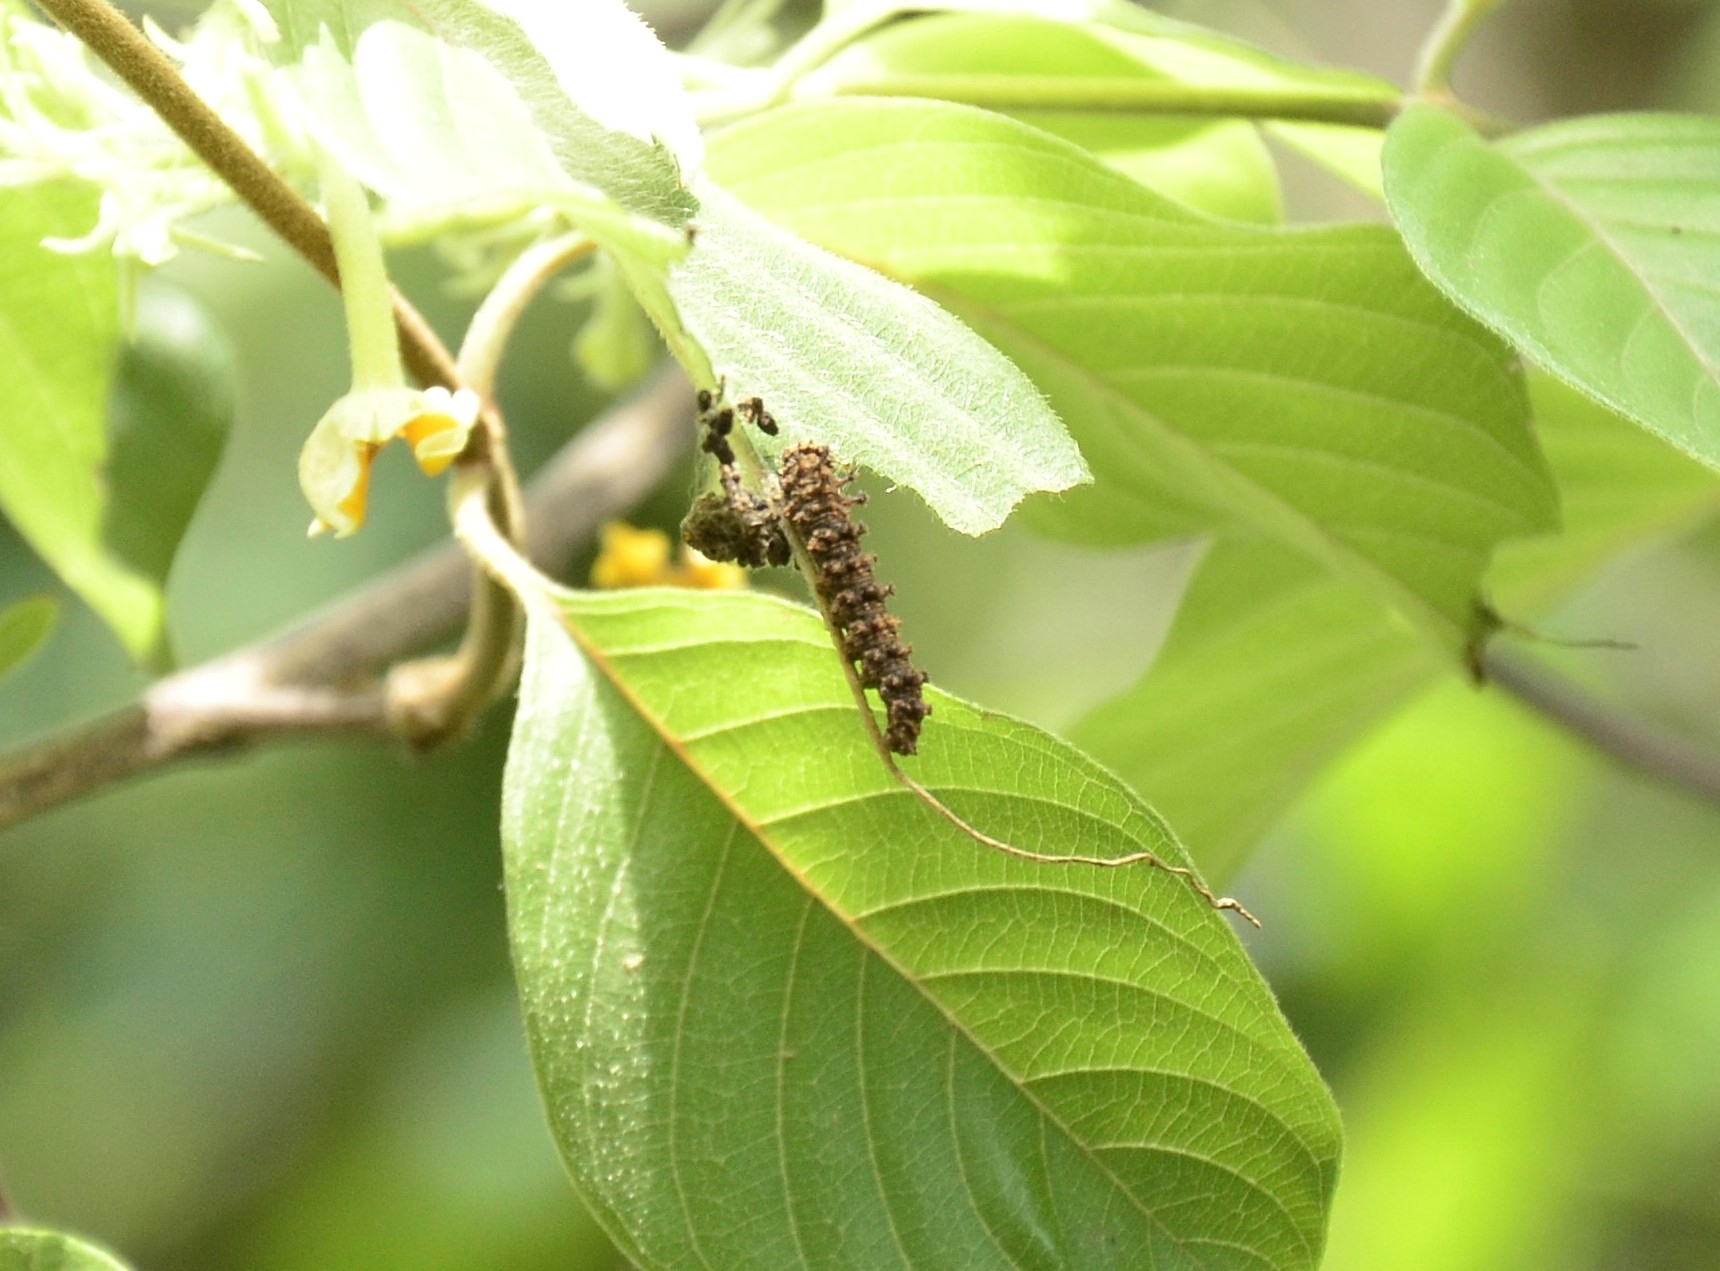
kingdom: Animalia
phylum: Arthropoda
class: Insecta
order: Lepidoptera
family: Nymphalidae
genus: Limenitis
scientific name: Limenitis Moduza procris
